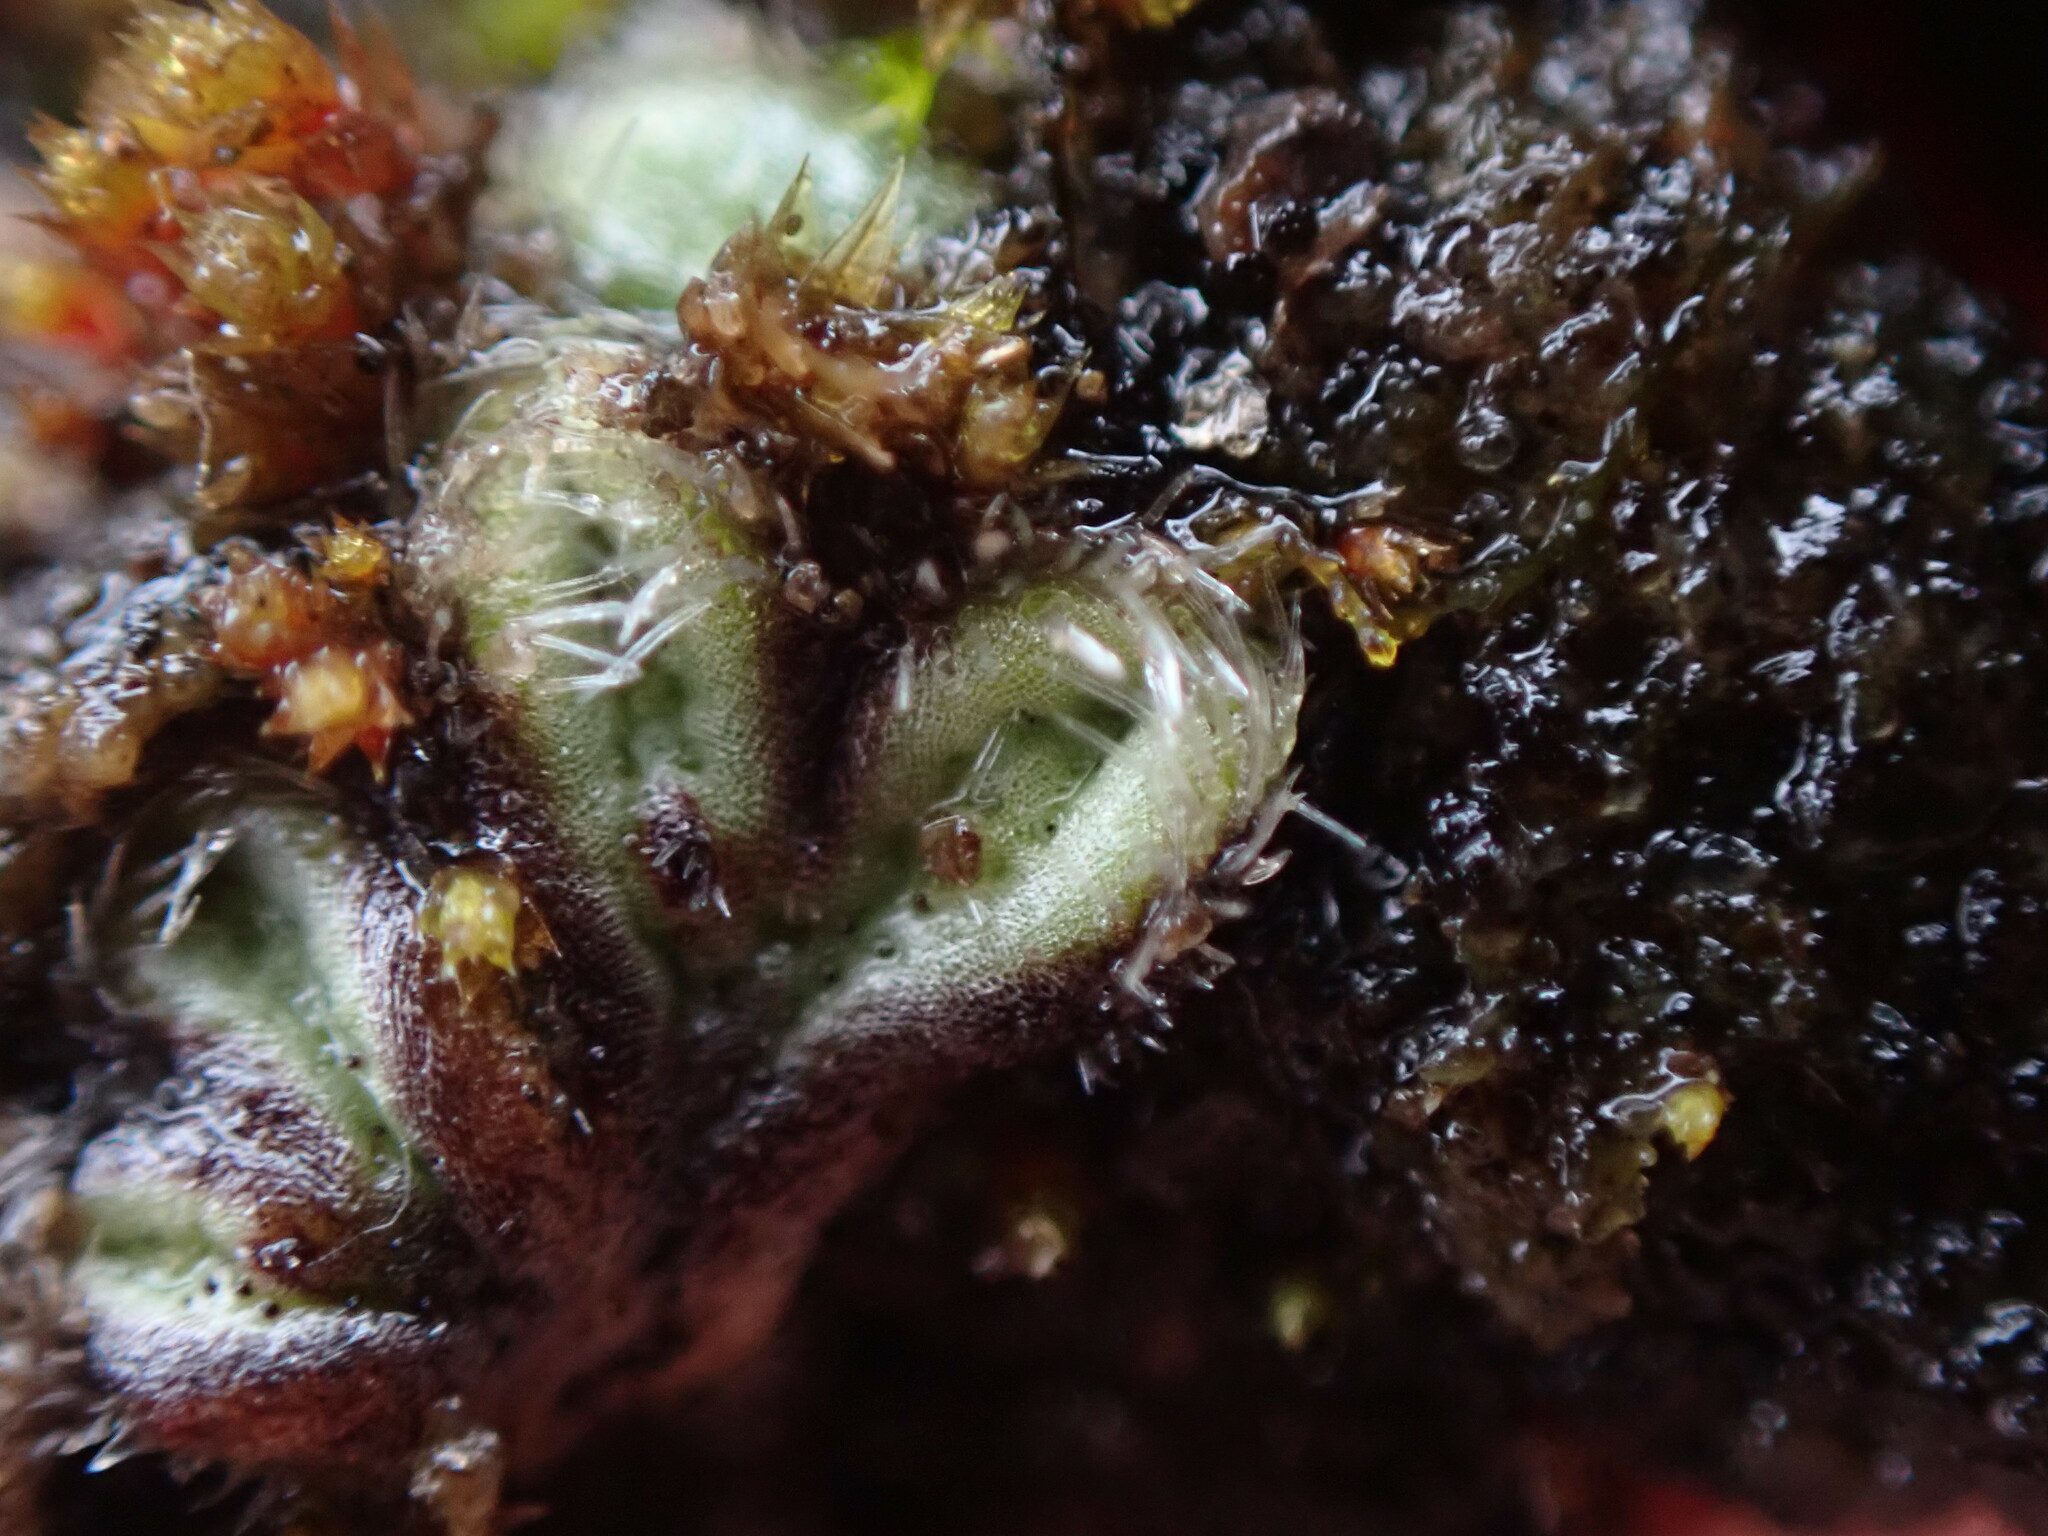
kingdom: Plantae
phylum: Marchantiophyta
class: Marchantiopsida
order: Marchantiales
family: Ricciaceae
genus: Riccia
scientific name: Riccia trichocarpa
